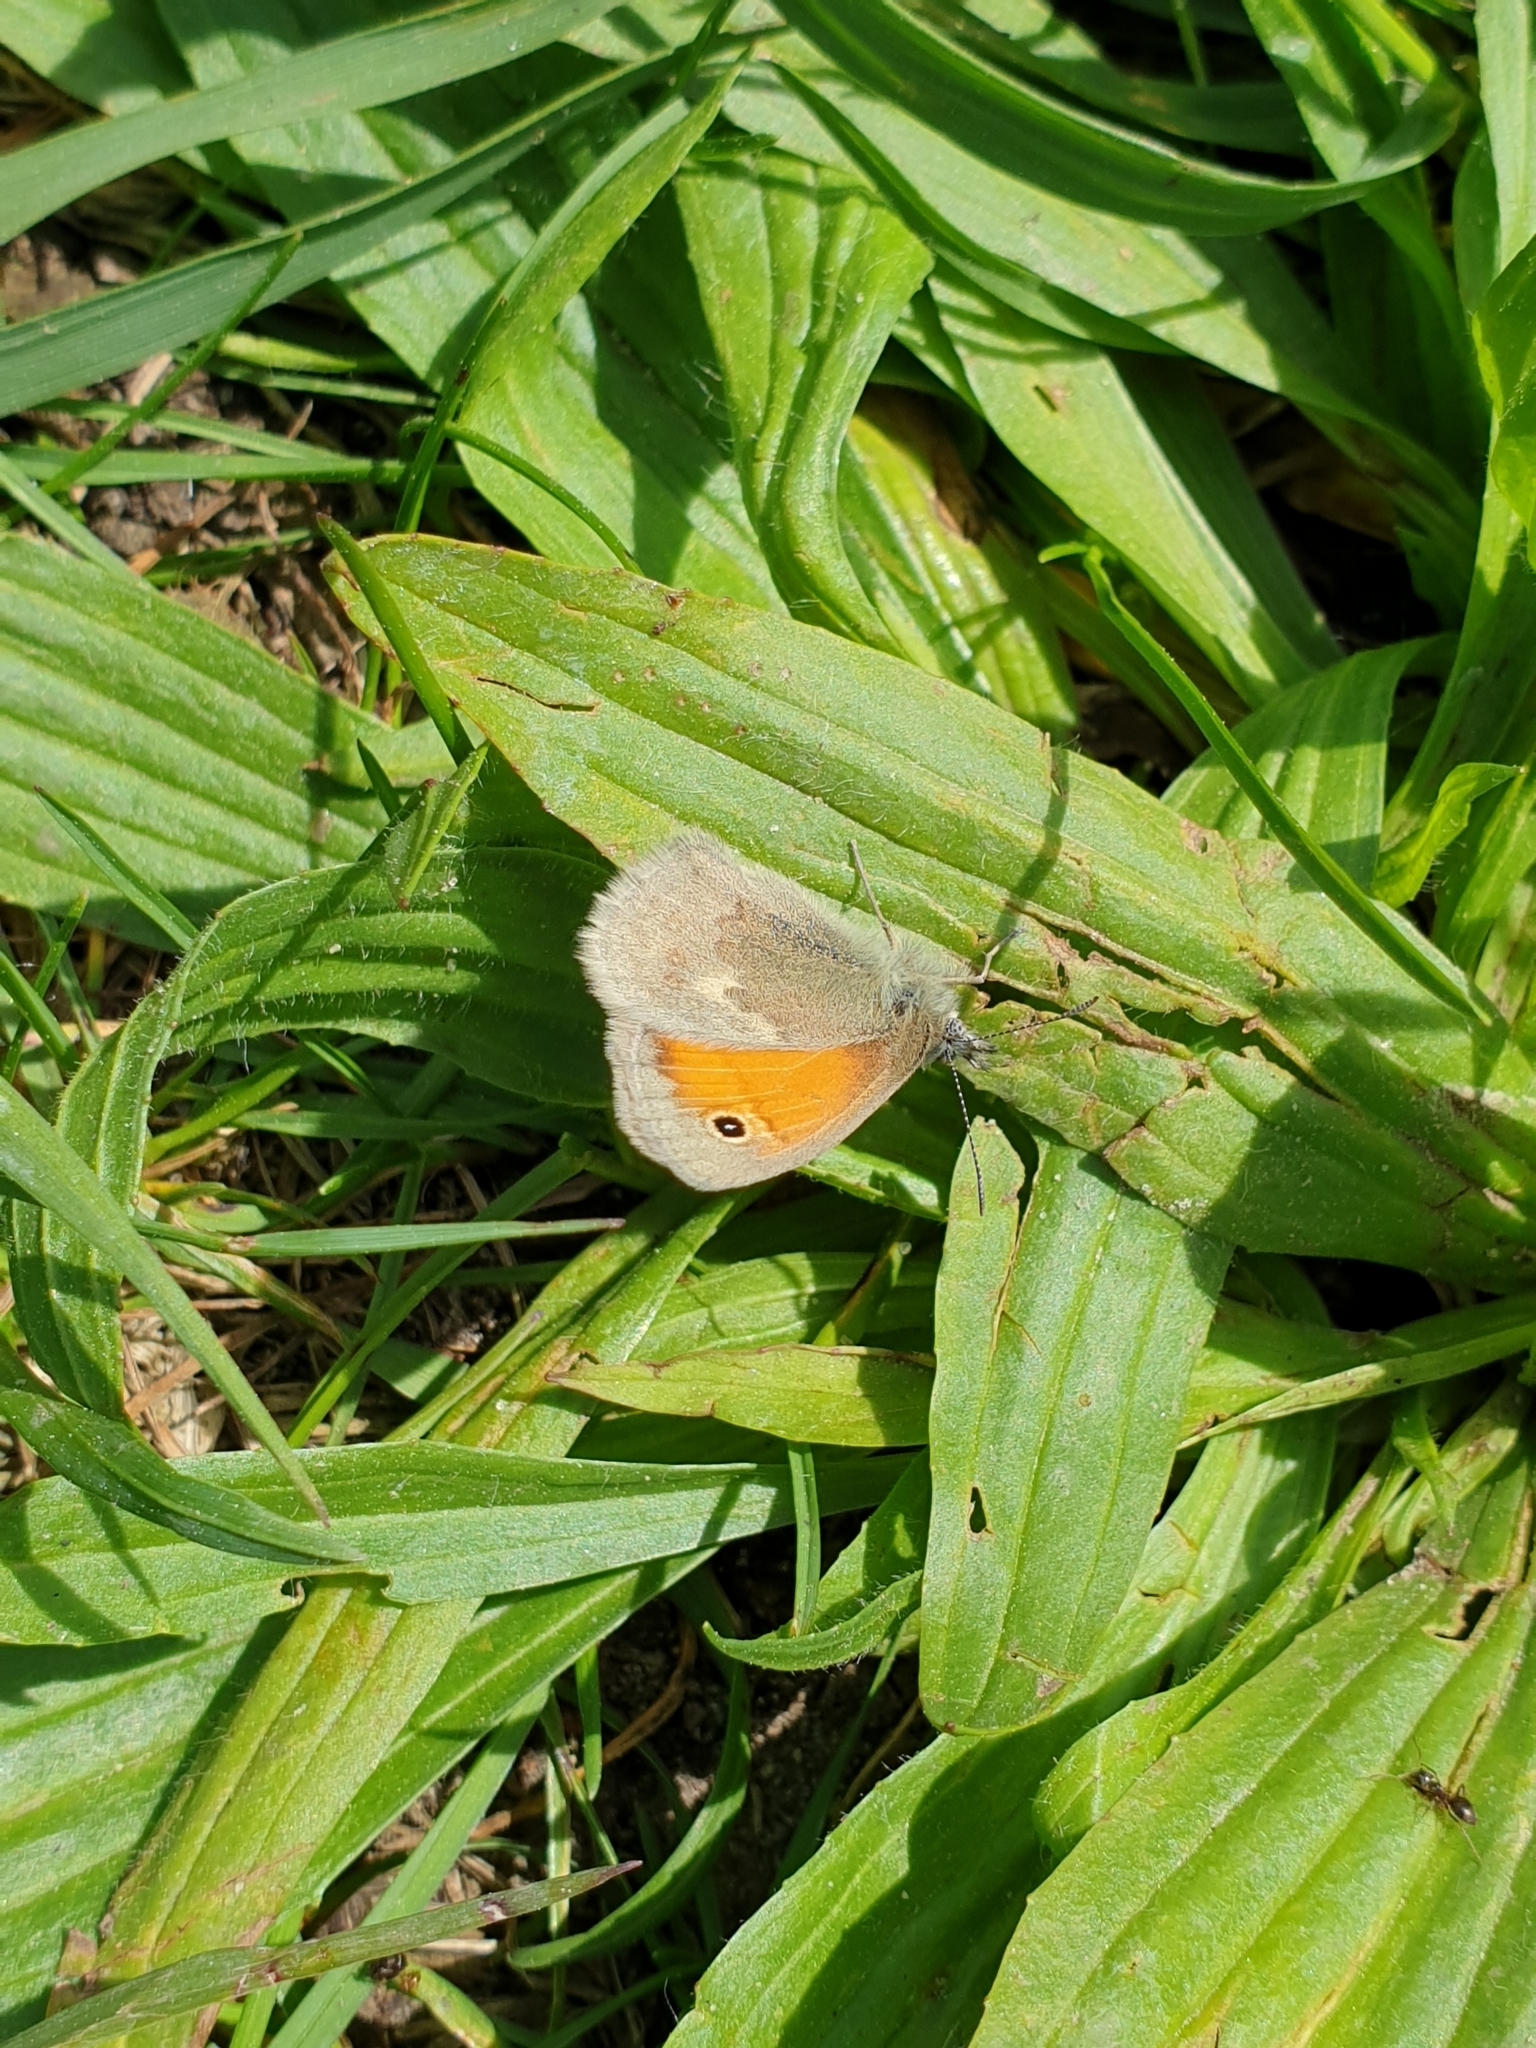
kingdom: Animalia
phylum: Arthropoda
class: Insecta
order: Lepidoptera
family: Nymphalidae
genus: Coenonympha
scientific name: Coenonympha pamphilus
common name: Small heath
